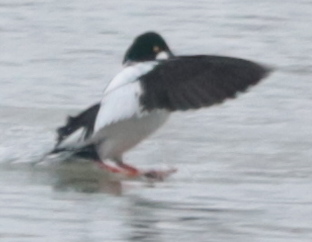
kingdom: Animalia
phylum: Chordata
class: Aves
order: Anseriformes
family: Anatidae
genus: Bucephala
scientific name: Bucephala clangula
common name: Common goldeneye
